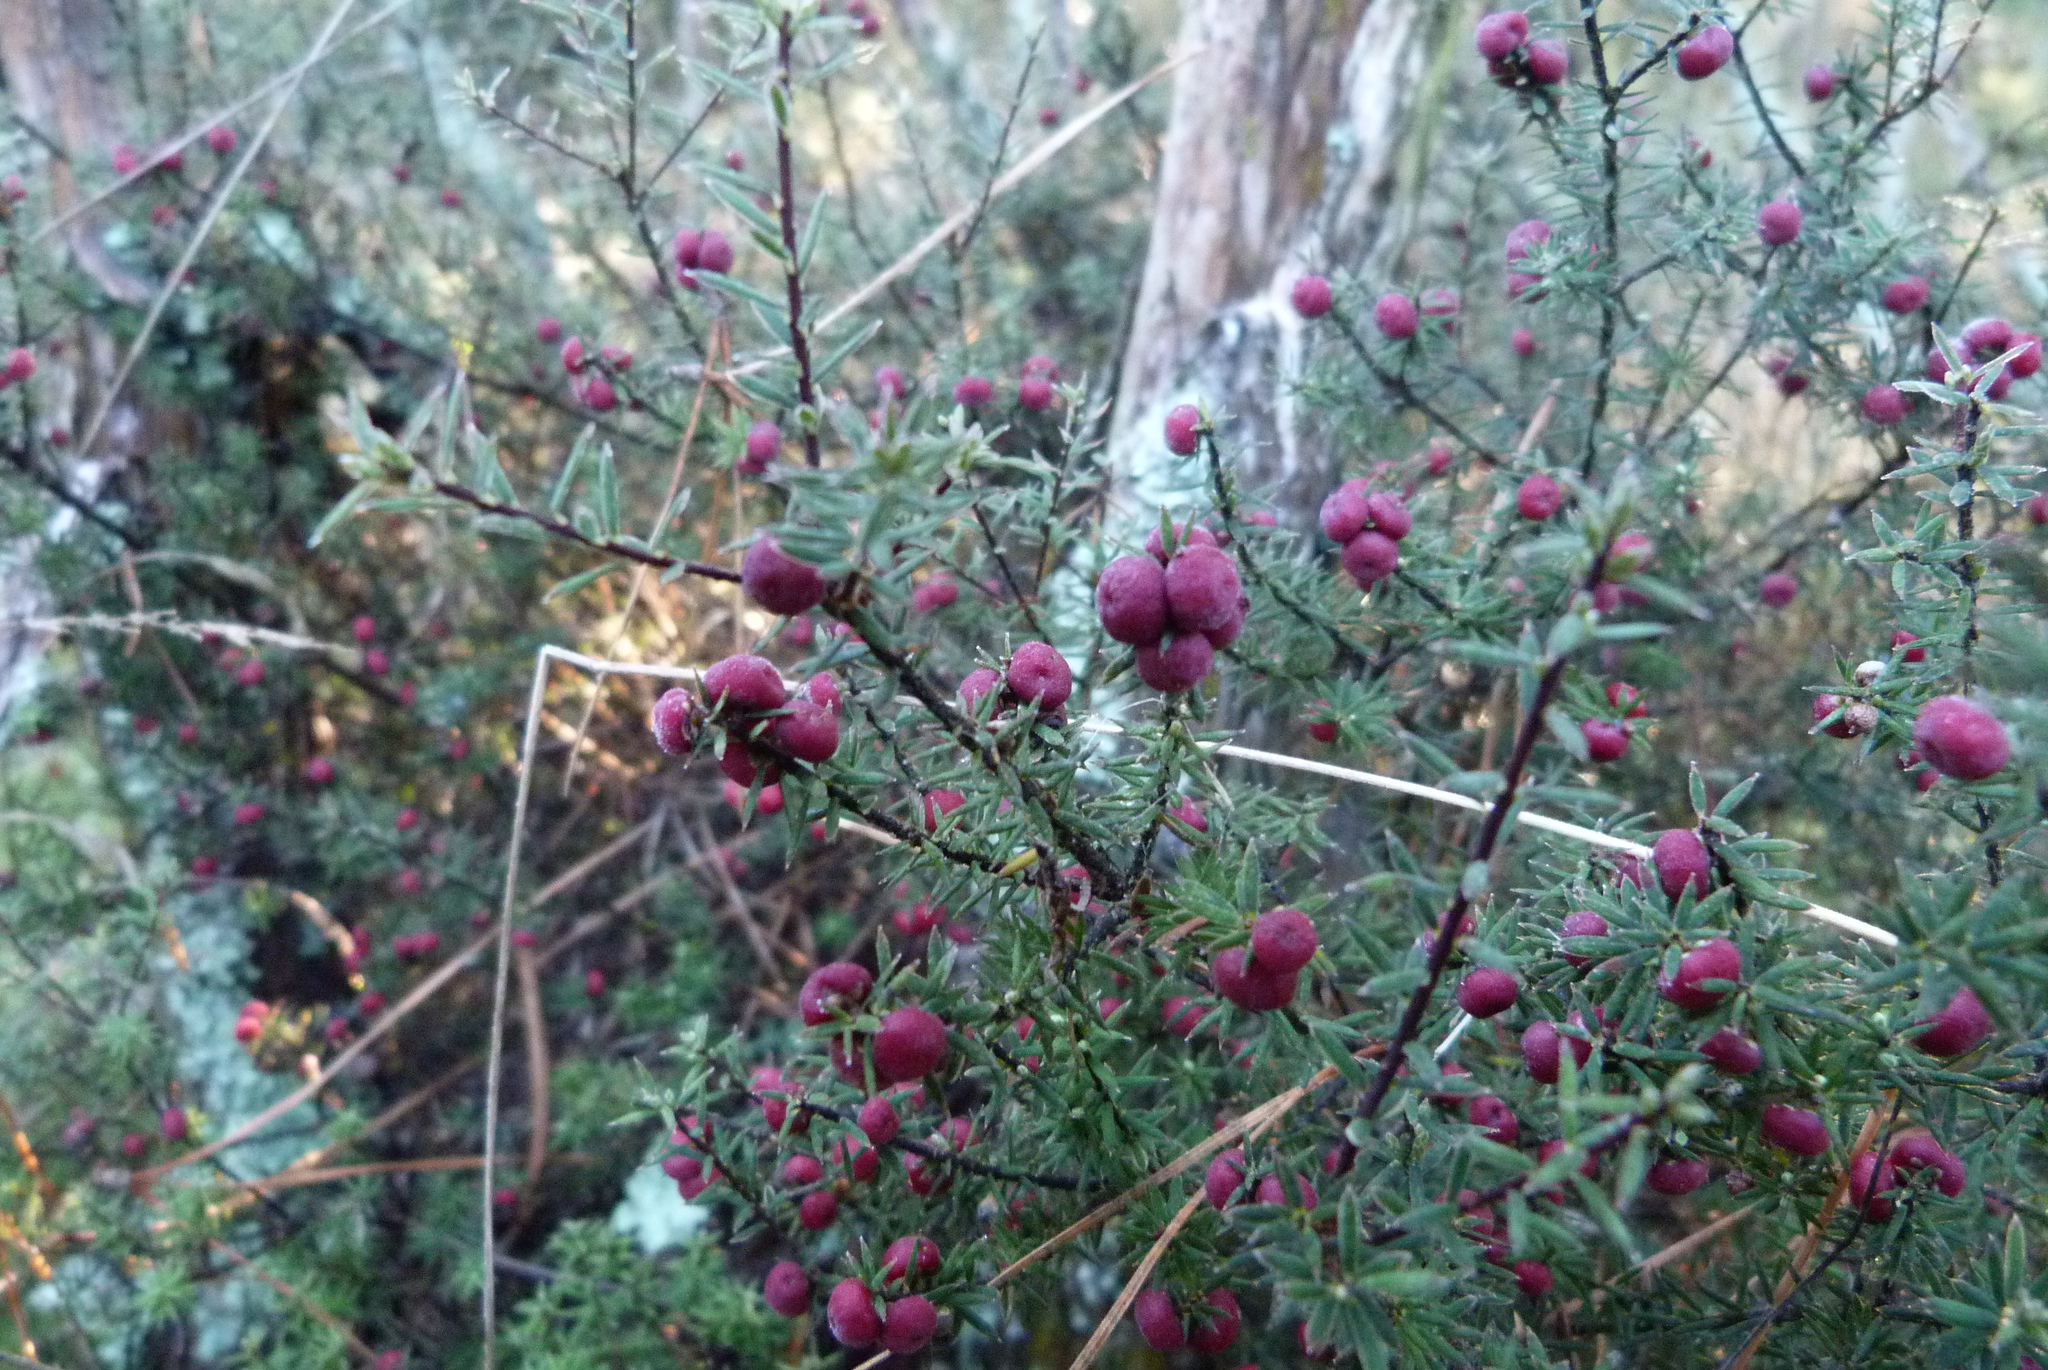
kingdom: Plantae
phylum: Tracheophyta
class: Magnoliopsida
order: Ericales
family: Ericaceae
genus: Leptecophylla
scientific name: Leptecophylla juniperina
